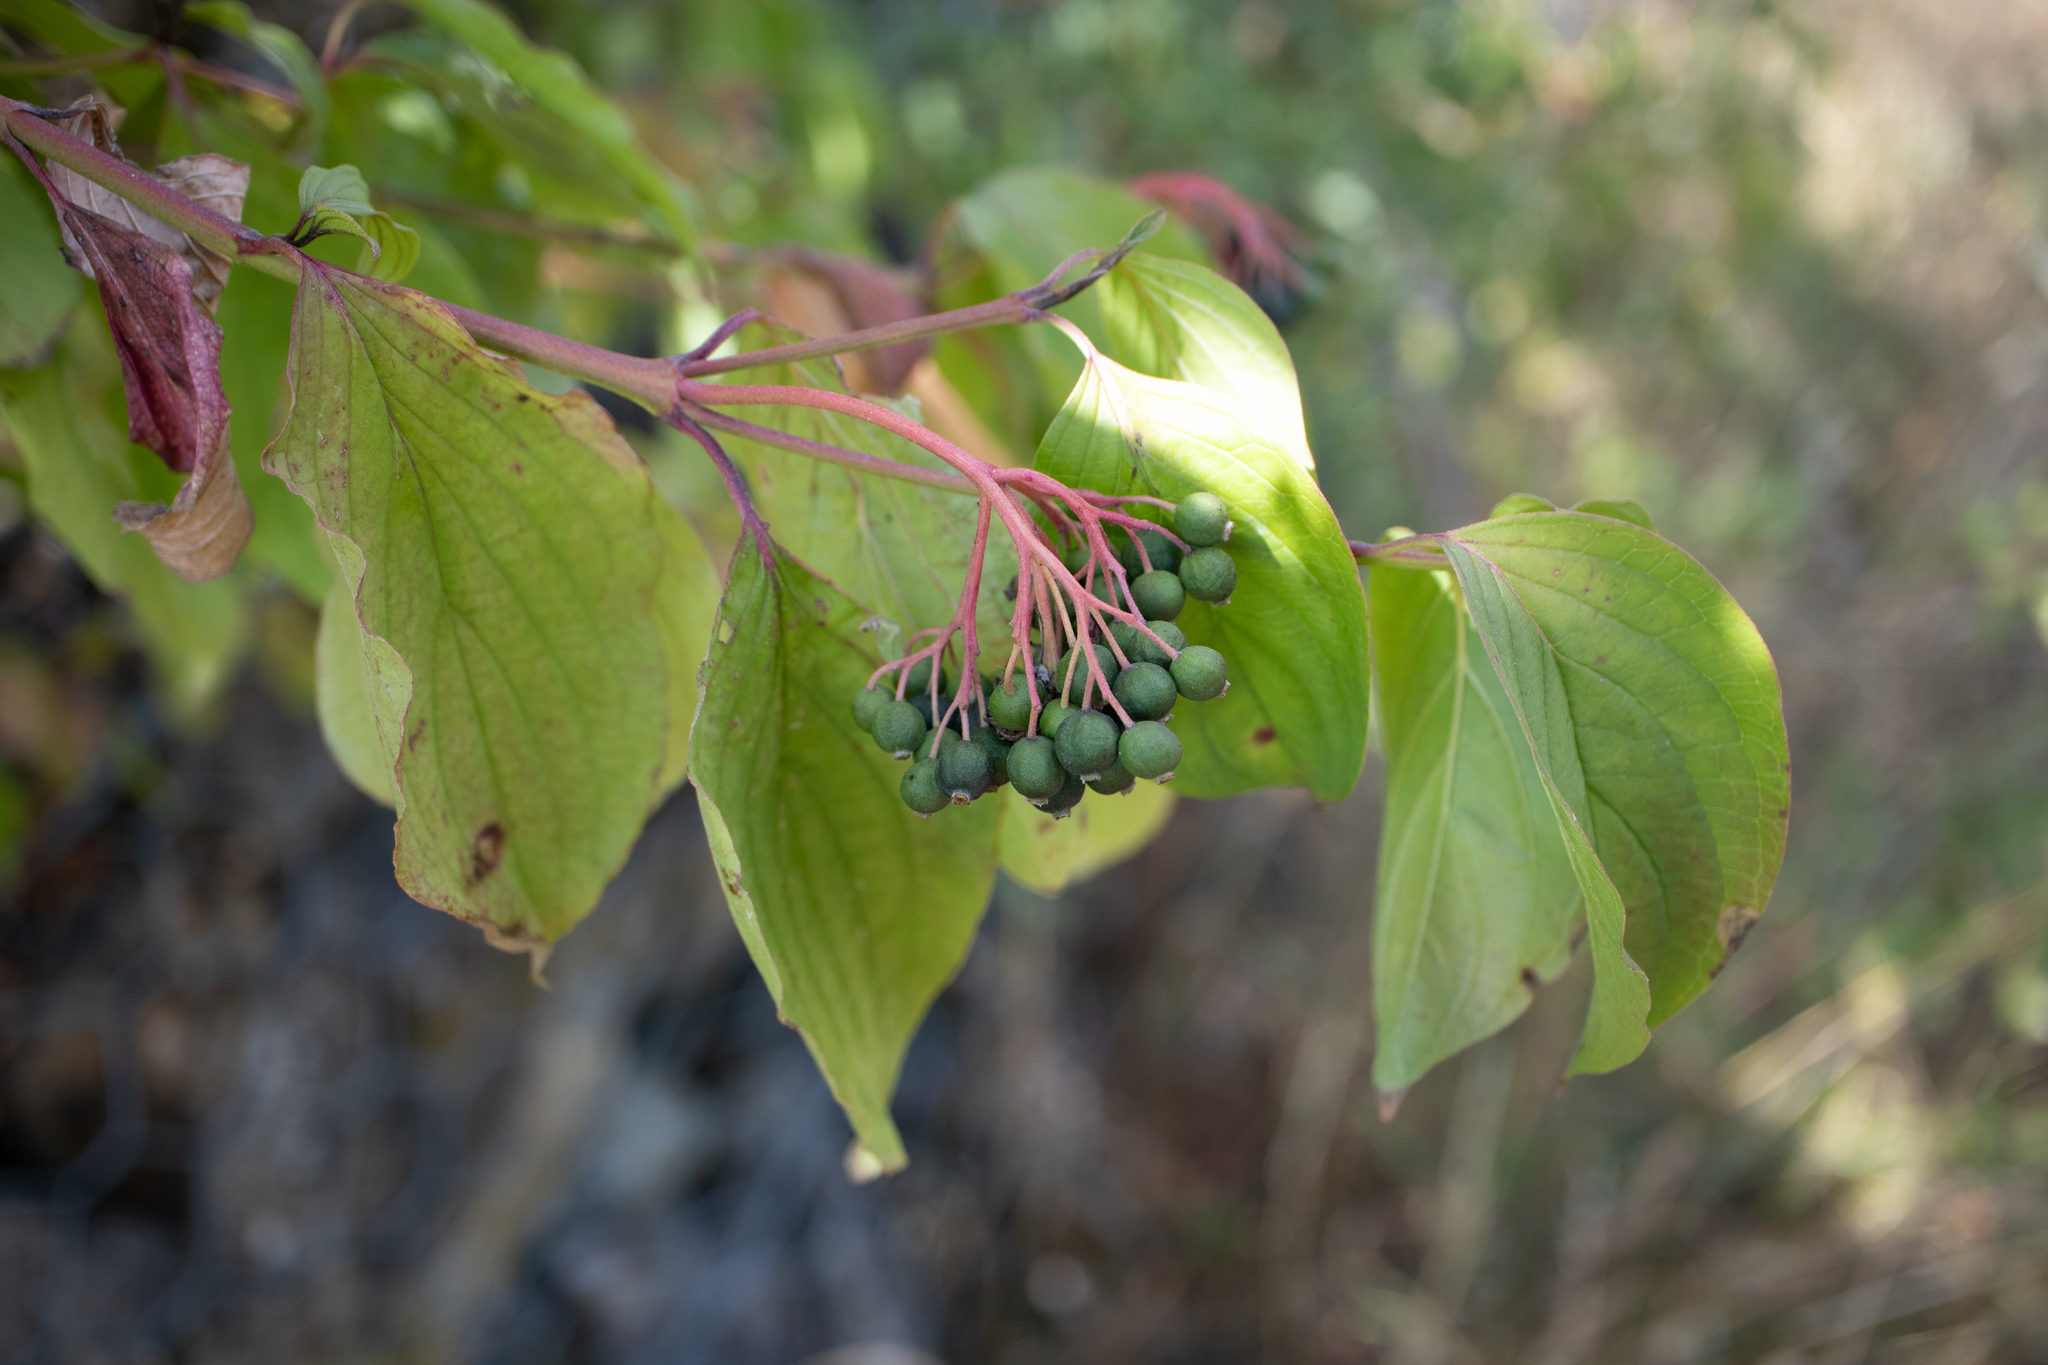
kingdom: Plantae
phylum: Tracheophyta
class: Magnoliopsida
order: Cornales
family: Cornaceae
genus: Cornus
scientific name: Cornus sanguinea
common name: Dogwood
